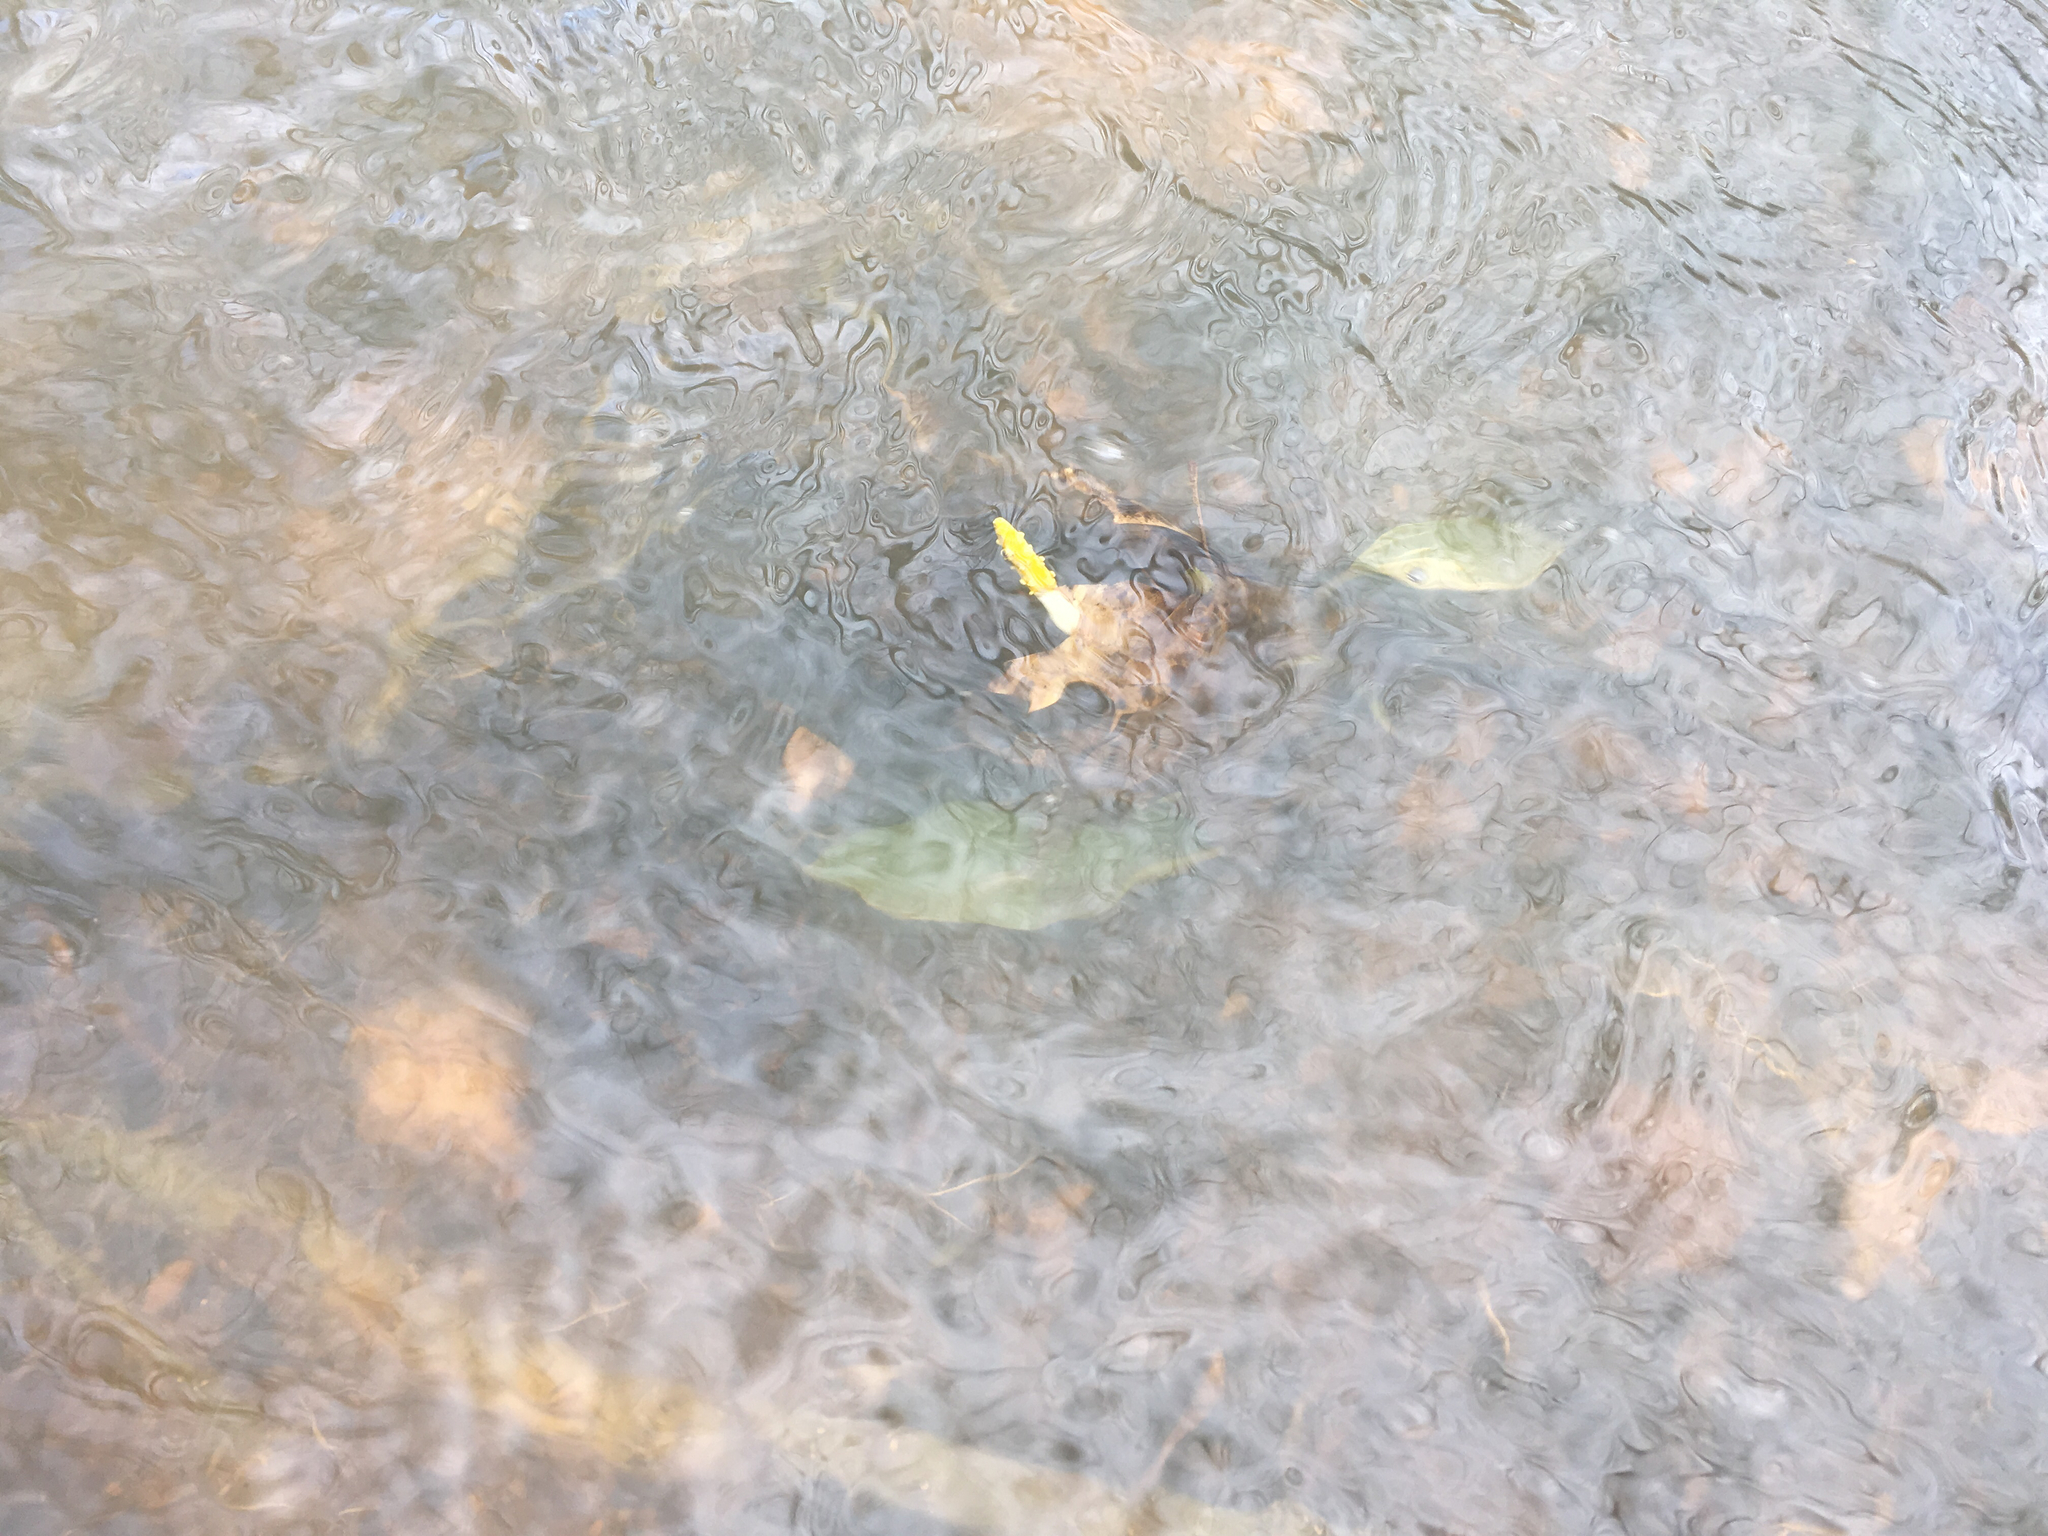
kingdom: Plantae
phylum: Tracheophyta
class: Liliopsida
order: Alismatales
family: Araceae
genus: Orontium
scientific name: Orontium aquaticum
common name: Golden-club
